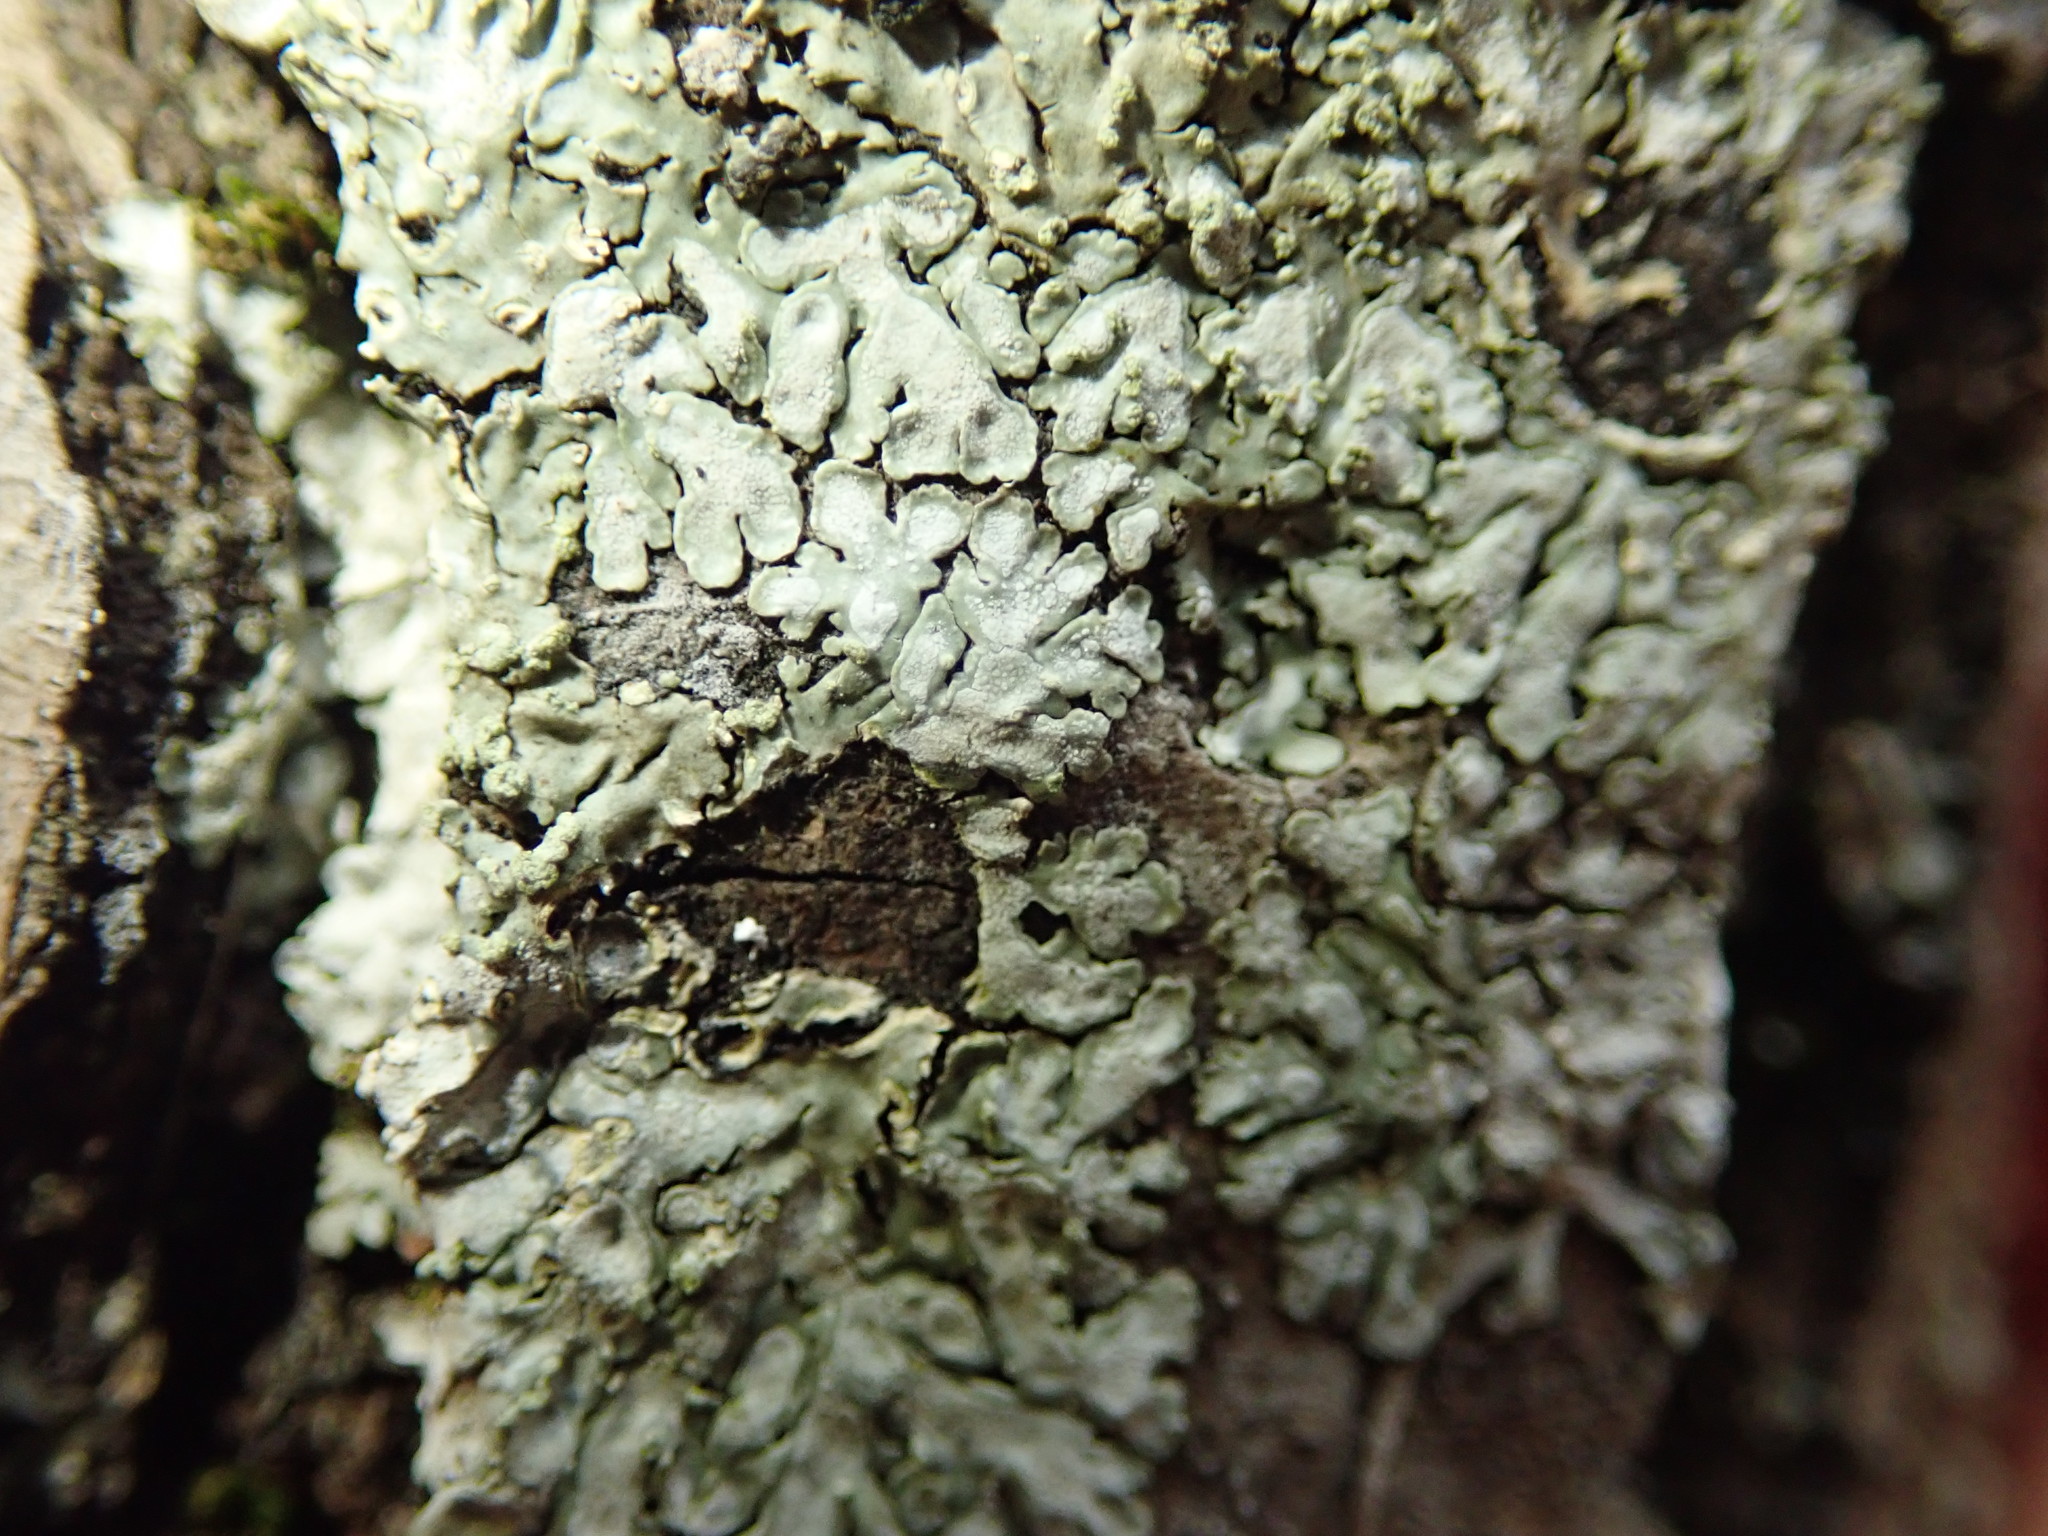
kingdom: Fungi
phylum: Ascomycota
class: Lecanoromycetes
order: Caliciales
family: Caliciaceae
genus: Pyxine
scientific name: Pyxine subcinerea
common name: Mustard lichen
